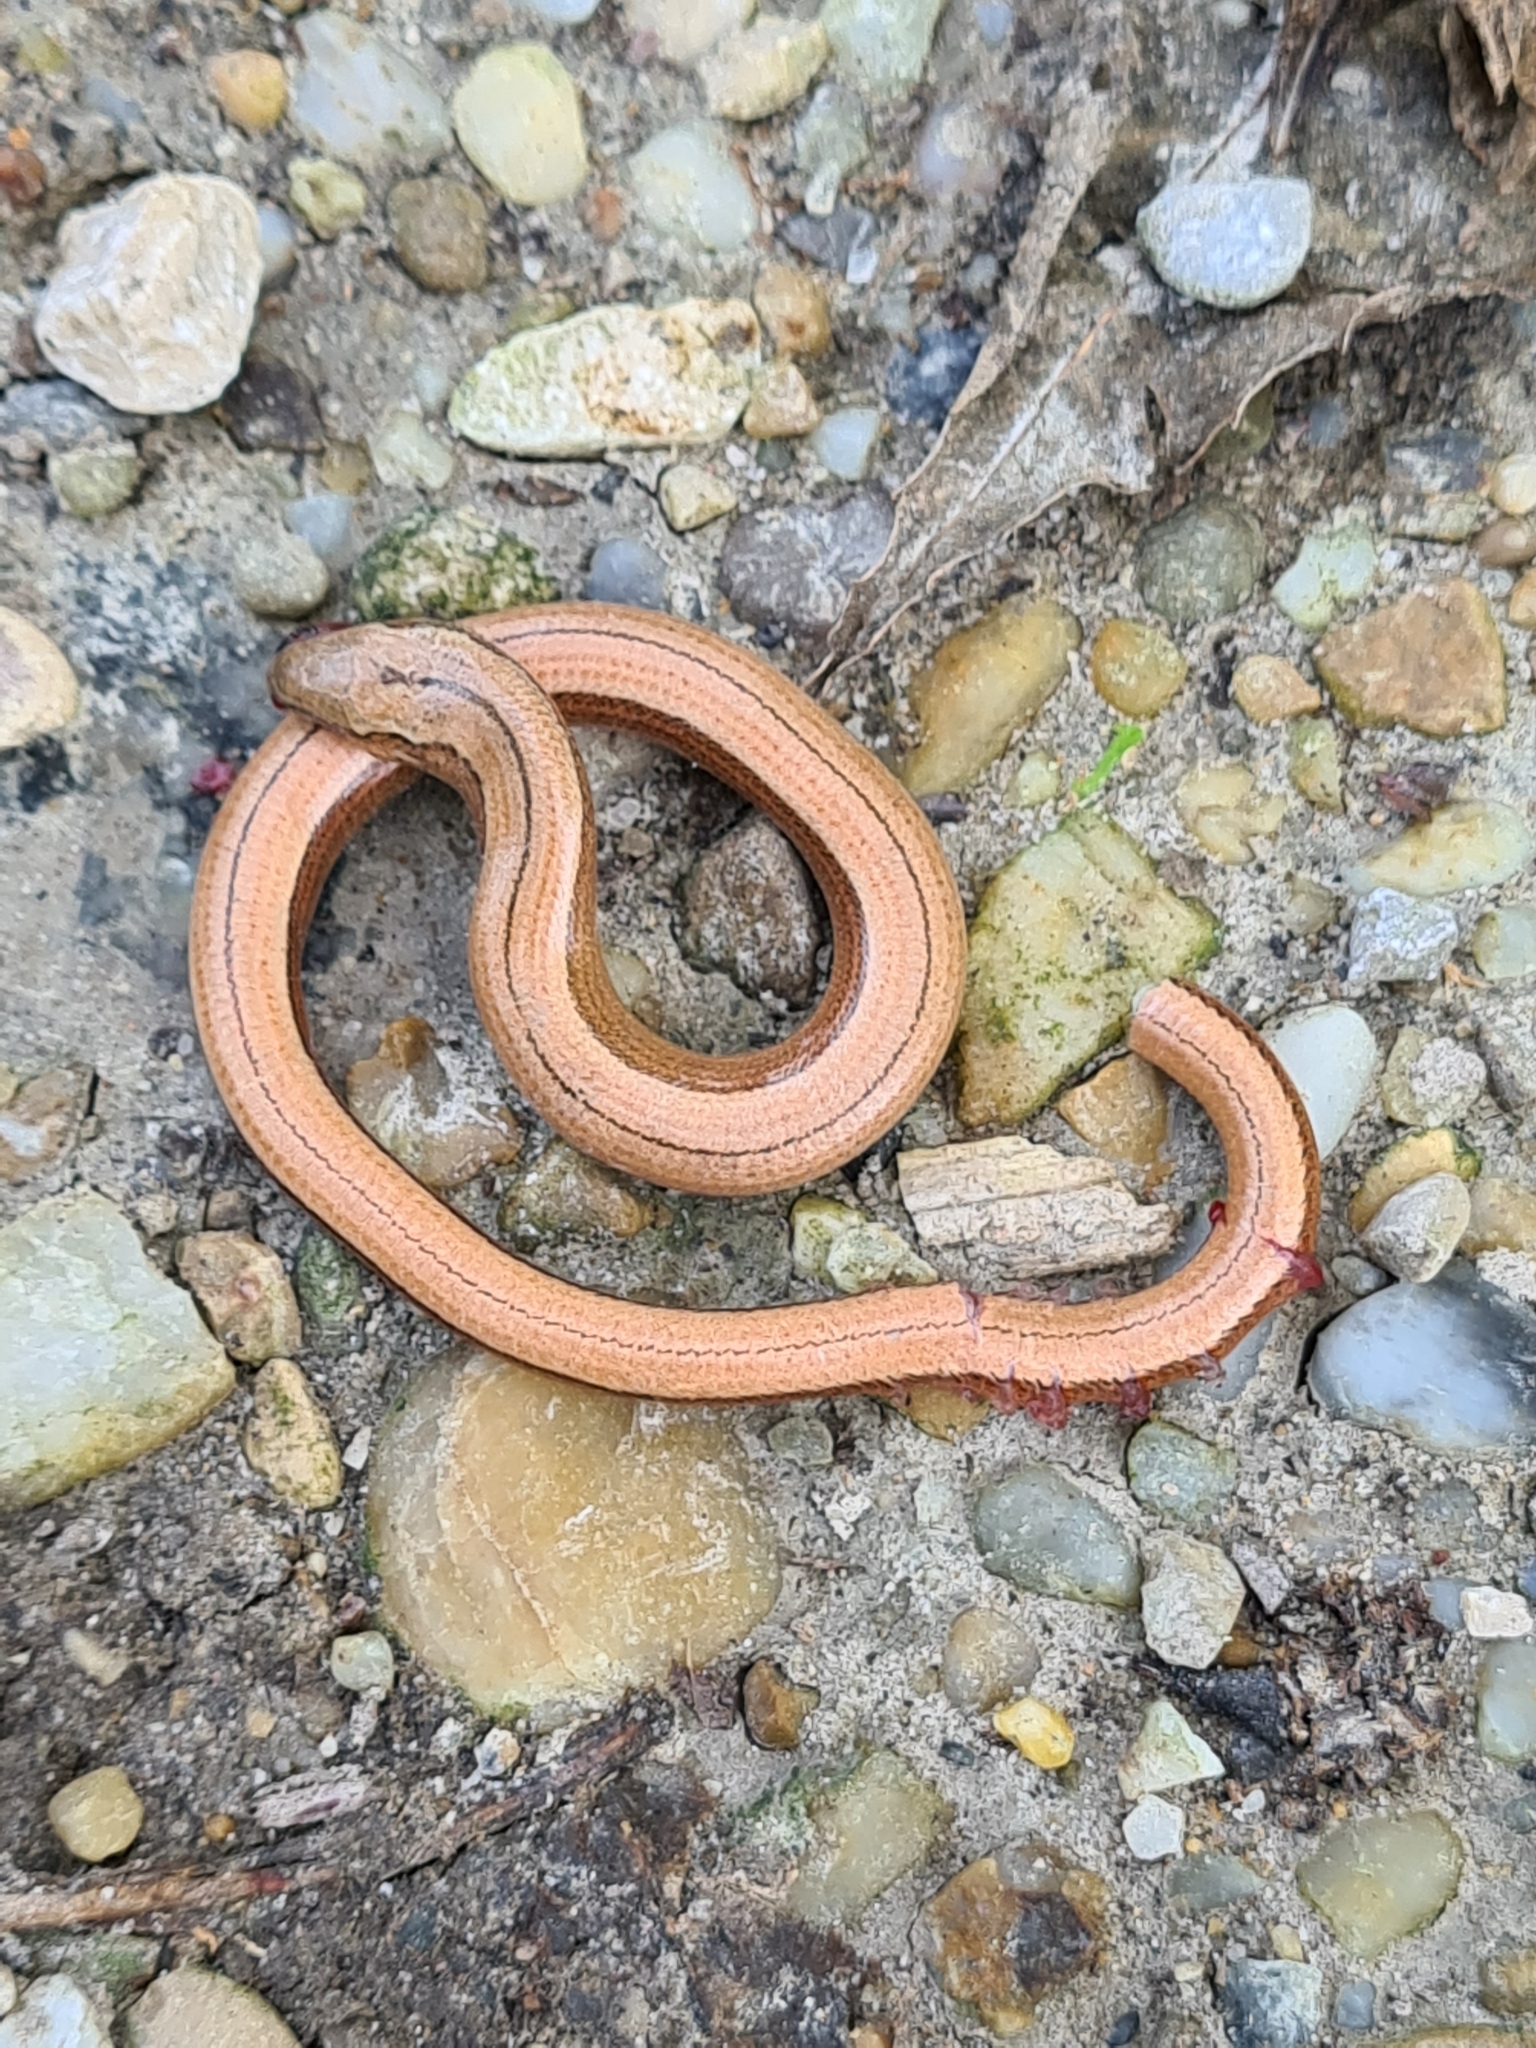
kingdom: Animalia
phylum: Chordata
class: Squamata
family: Anguidae
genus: Anguis
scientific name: Anguis fragilis
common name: Slow worm
